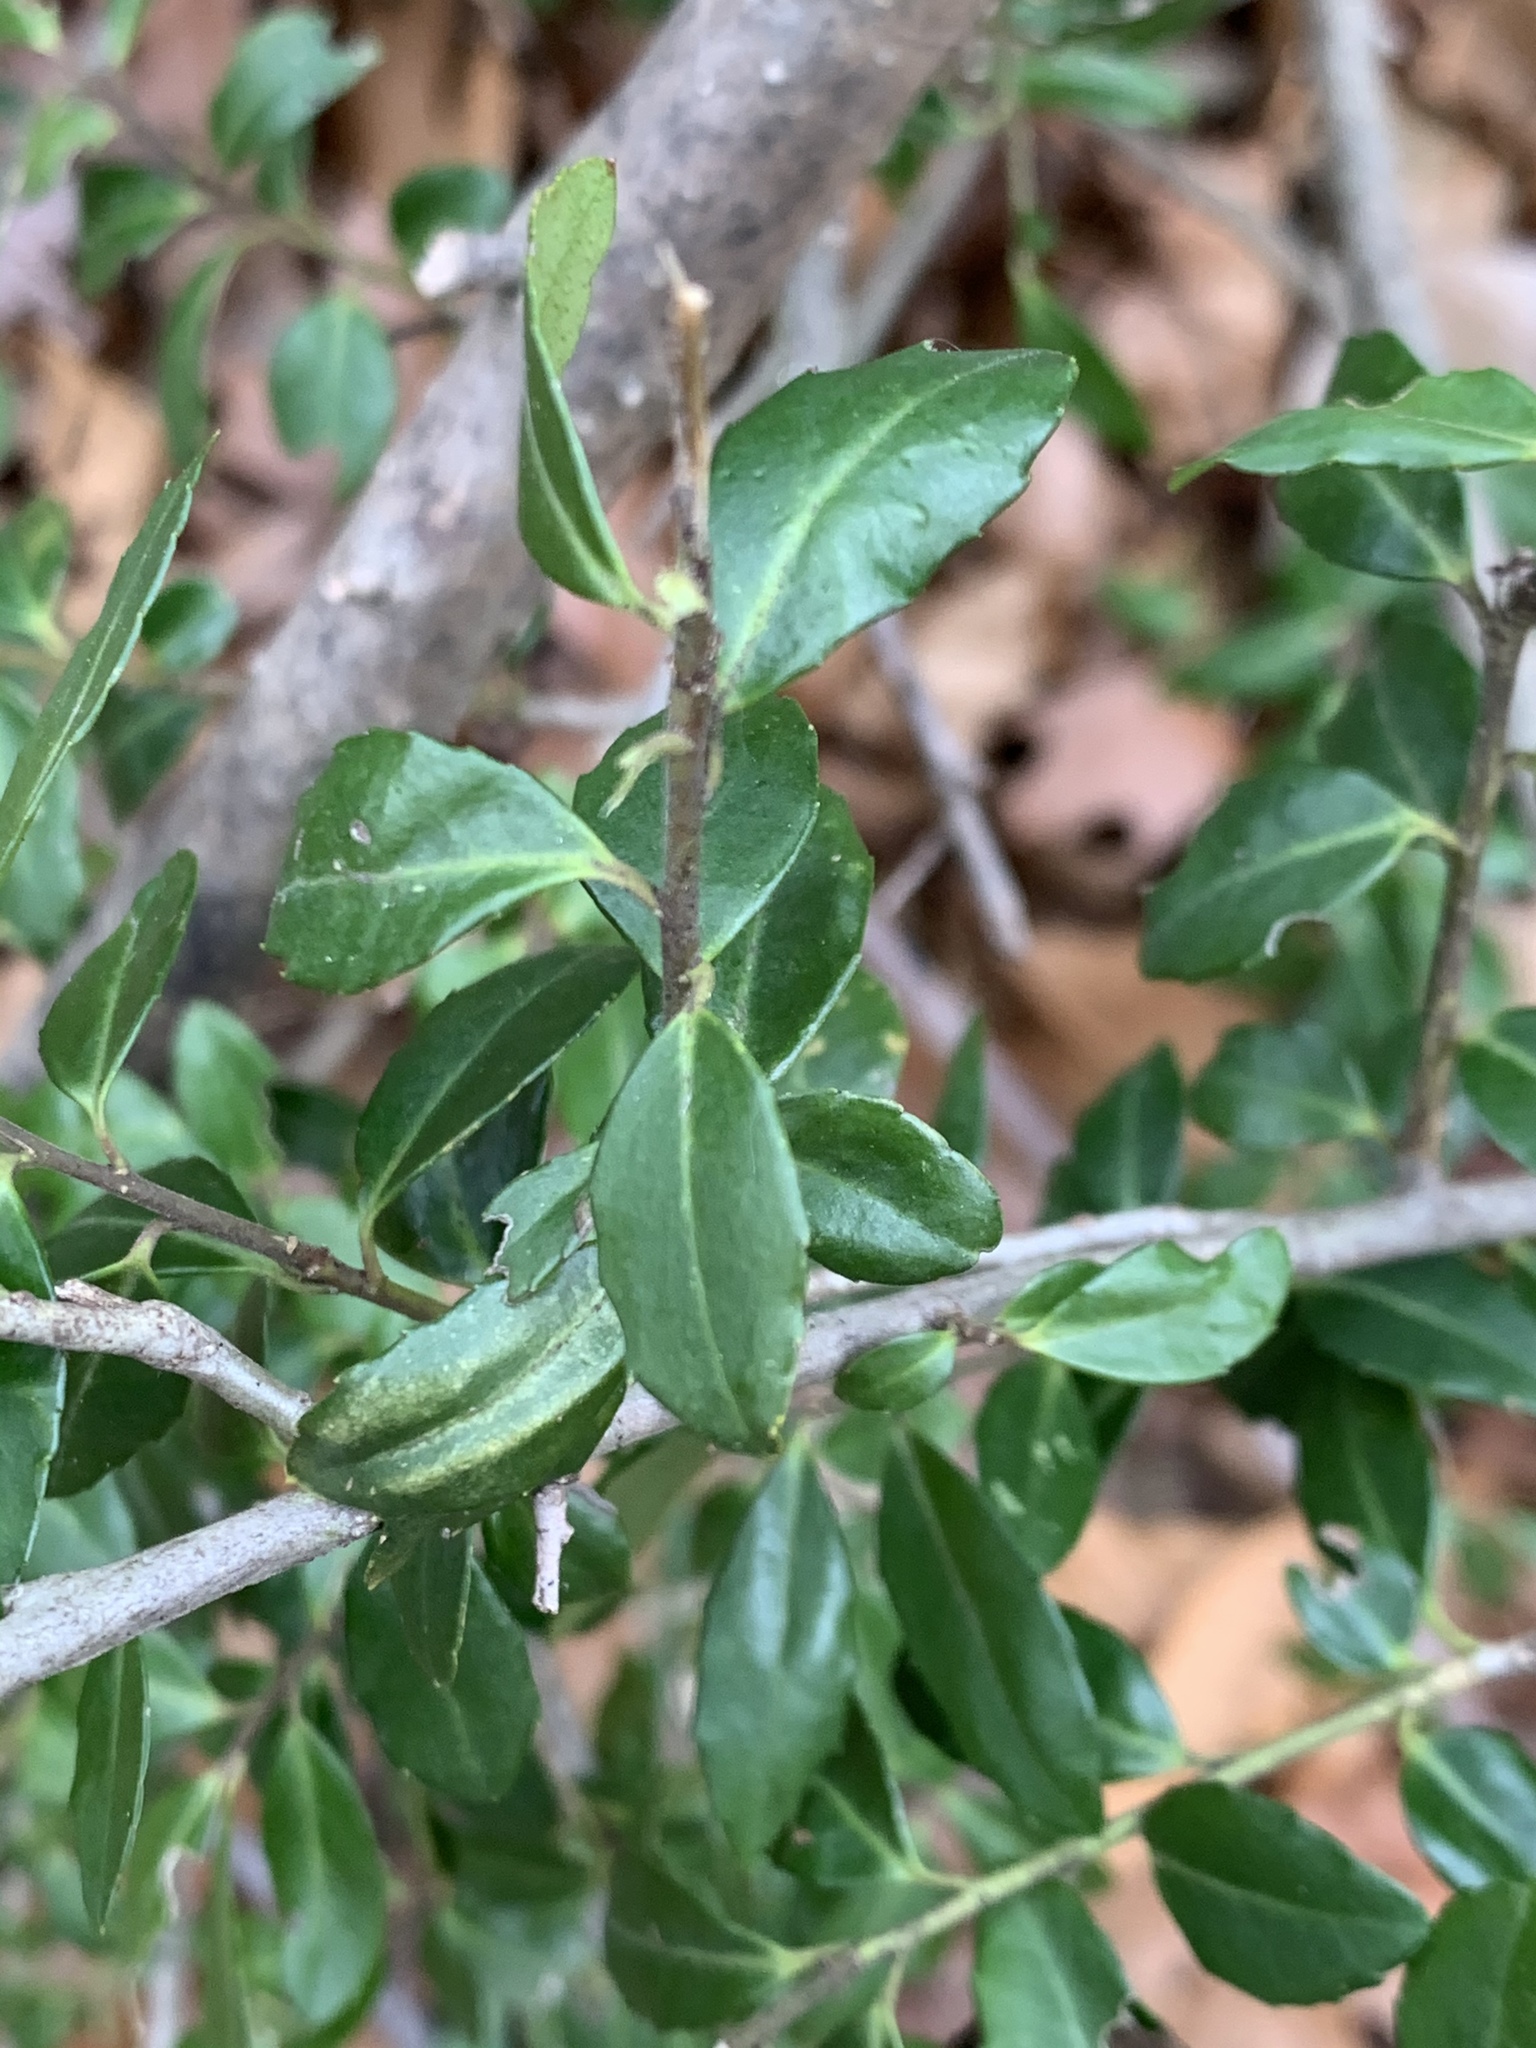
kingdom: Plantae
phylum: Tracheophyta
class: Magnoliopsida
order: Aquifoliales
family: Aquifoliaceae
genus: Ilex
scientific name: Ilex crenata
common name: Japanese holly
